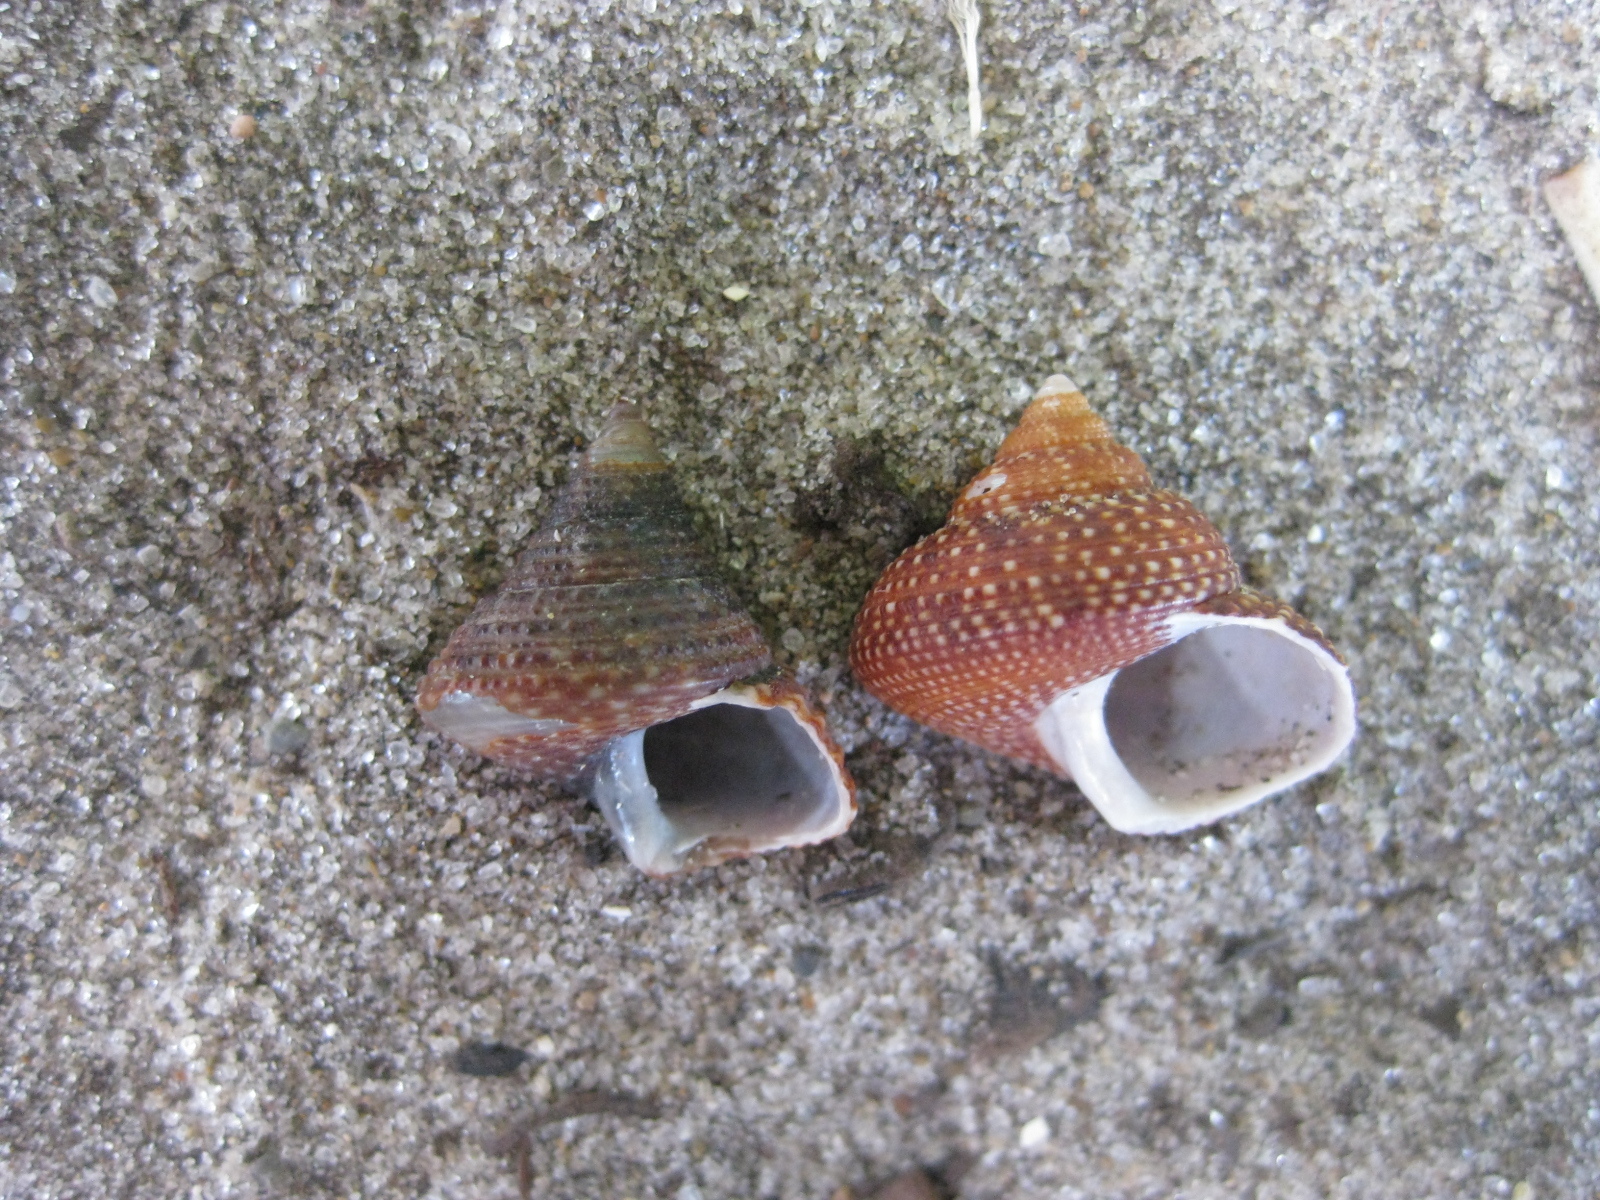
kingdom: Animalia
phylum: Mollusca
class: Gastropoda
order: Trochida
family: Calliostomatidae
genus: Maurea
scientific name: Maurea osbornei
